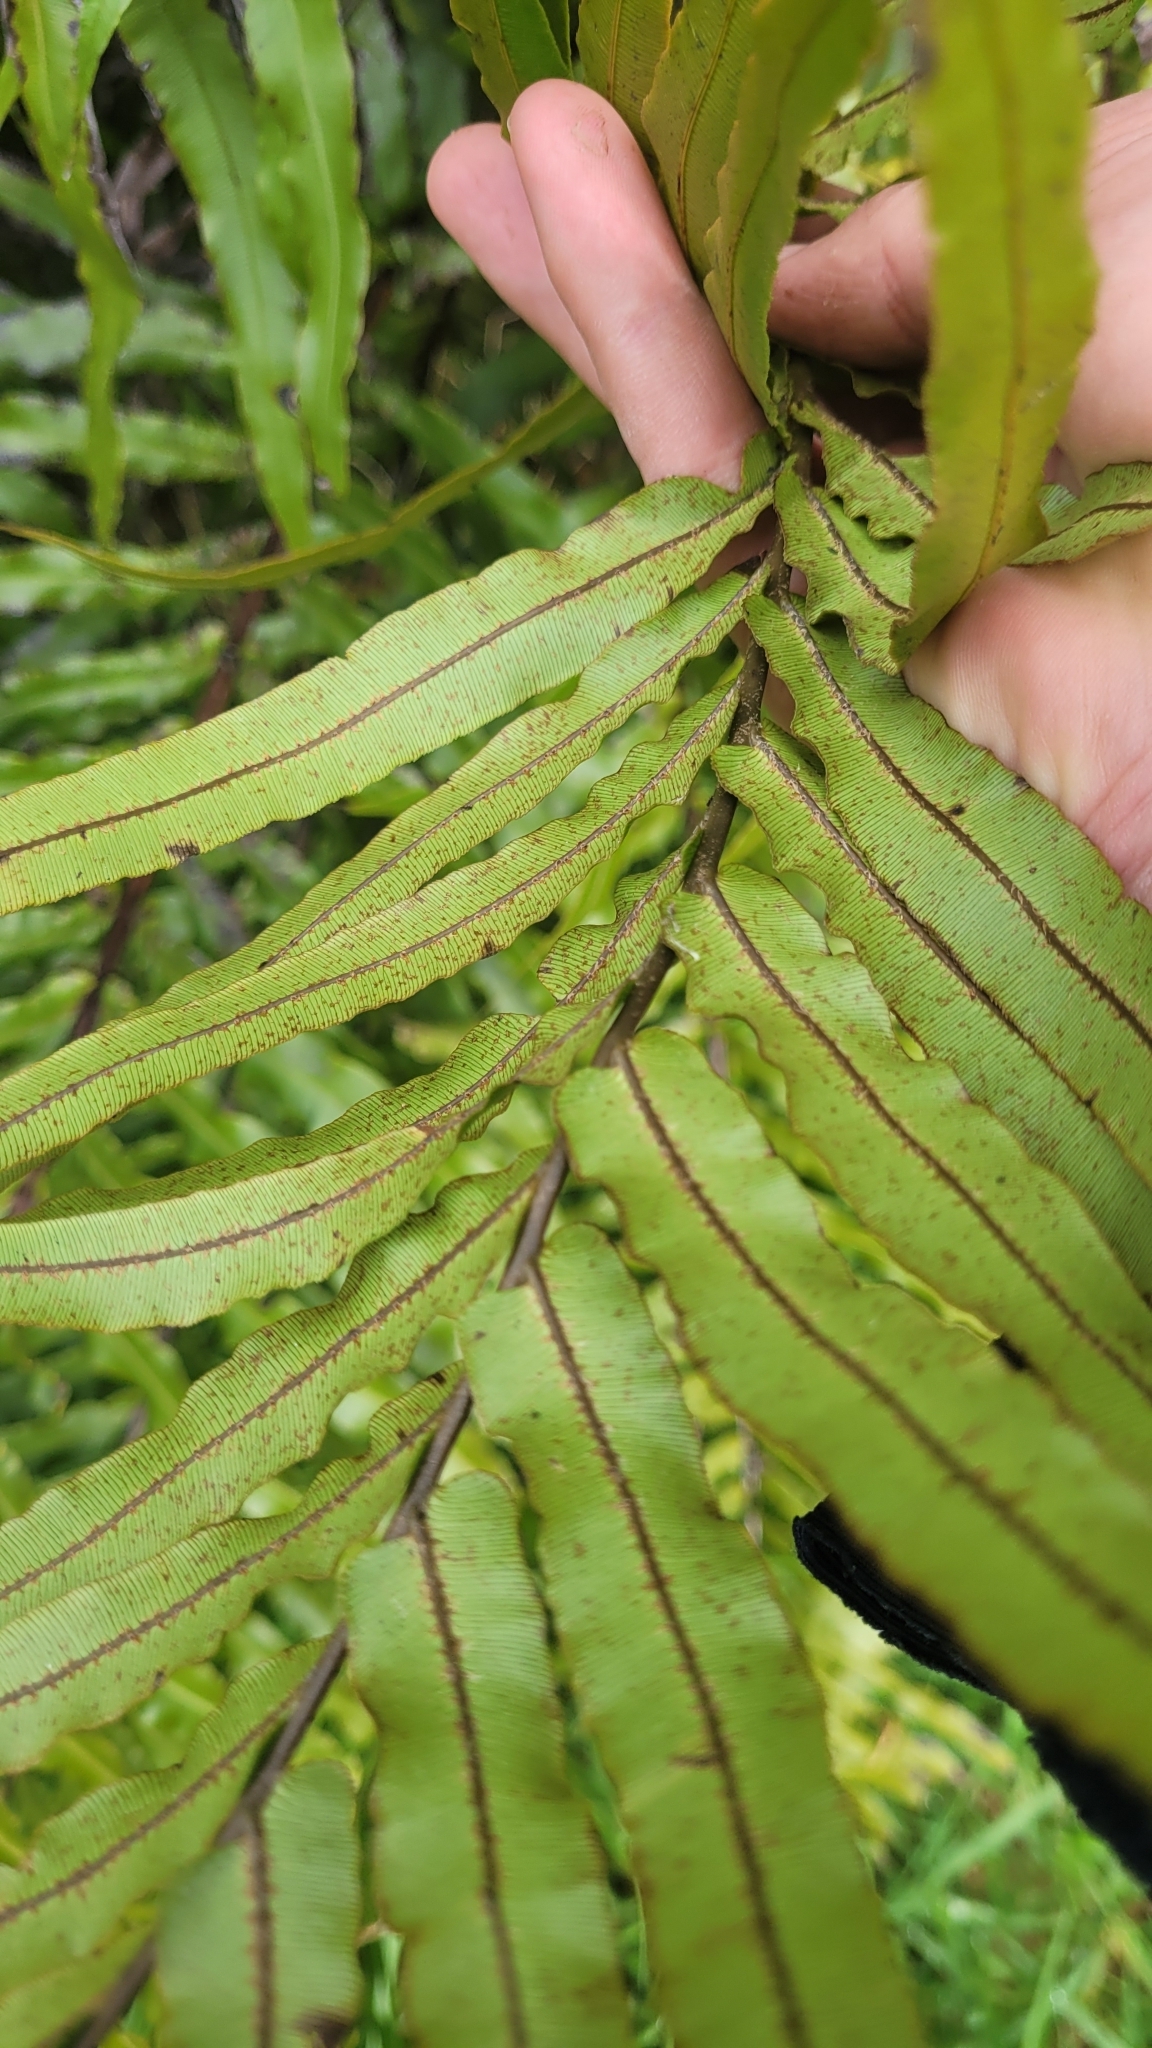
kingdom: Plantae
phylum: Tracheophyta
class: Polypodiopsida
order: Polypodiales
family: Blechnaceae
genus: Parablechnum
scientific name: Parablechnum novae-zelandiae
